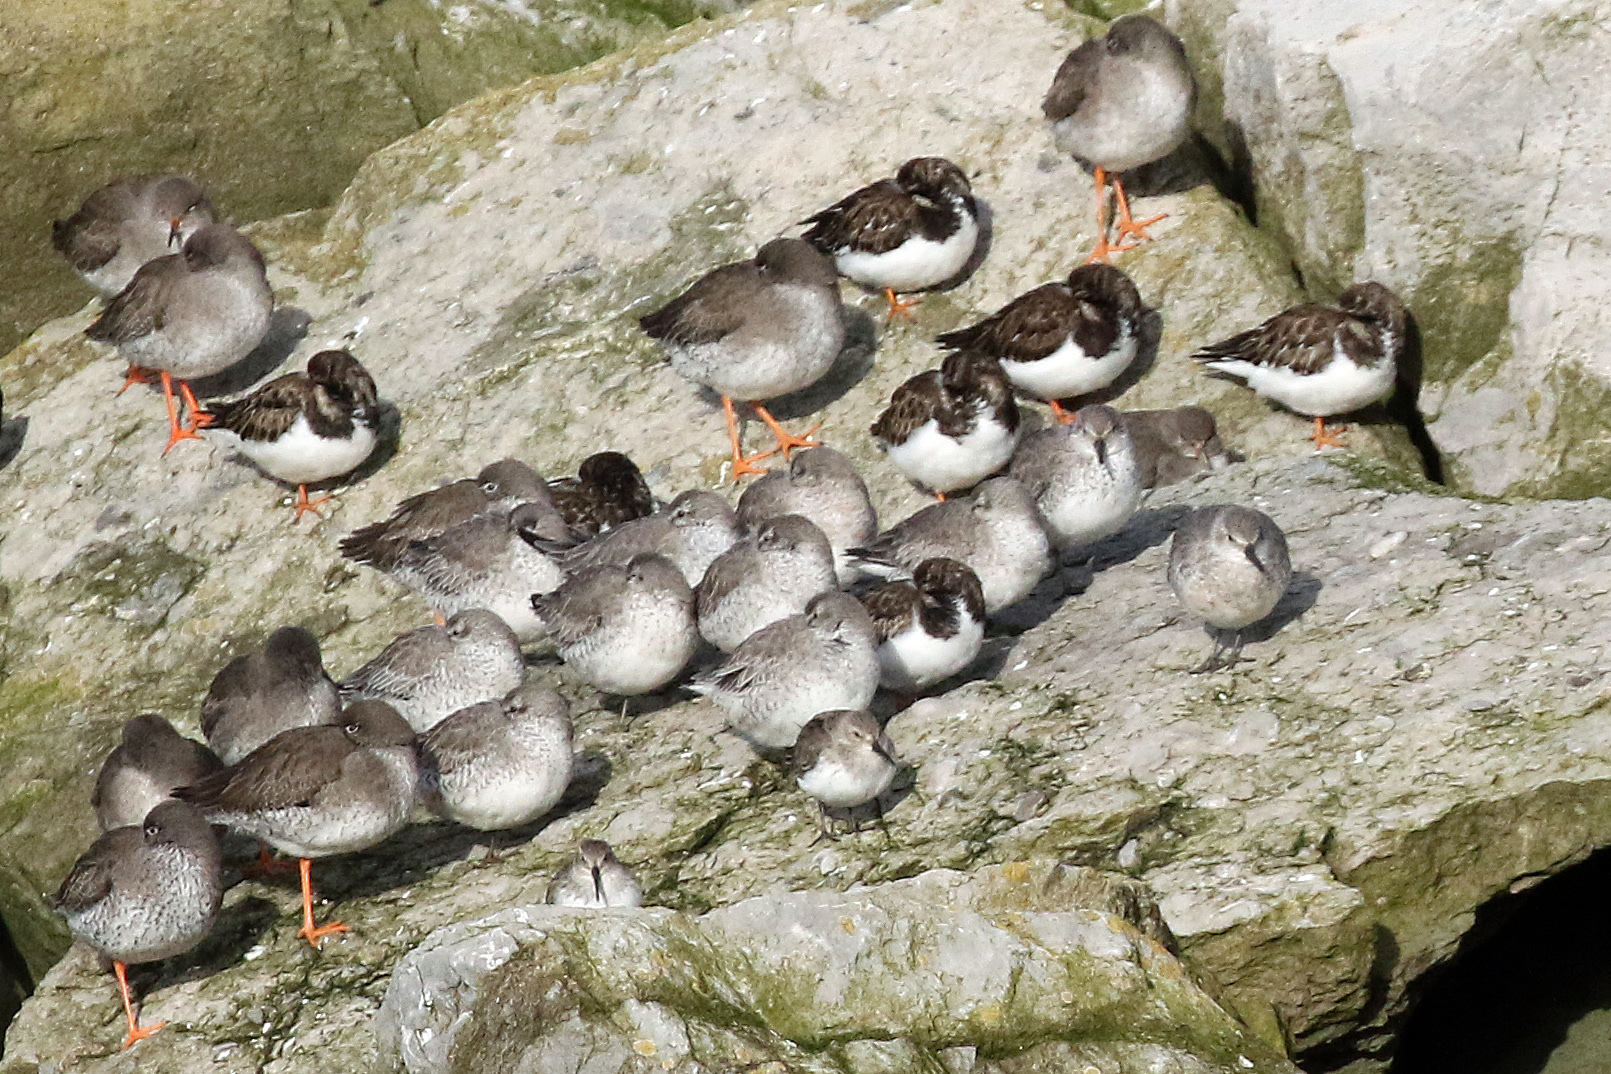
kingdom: Animalia
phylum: Chordata
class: Aves
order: Charadriiformes
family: Scolopacidae
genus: Arenaria
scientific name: Arenaria interpres
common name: Ruddy turnstone
